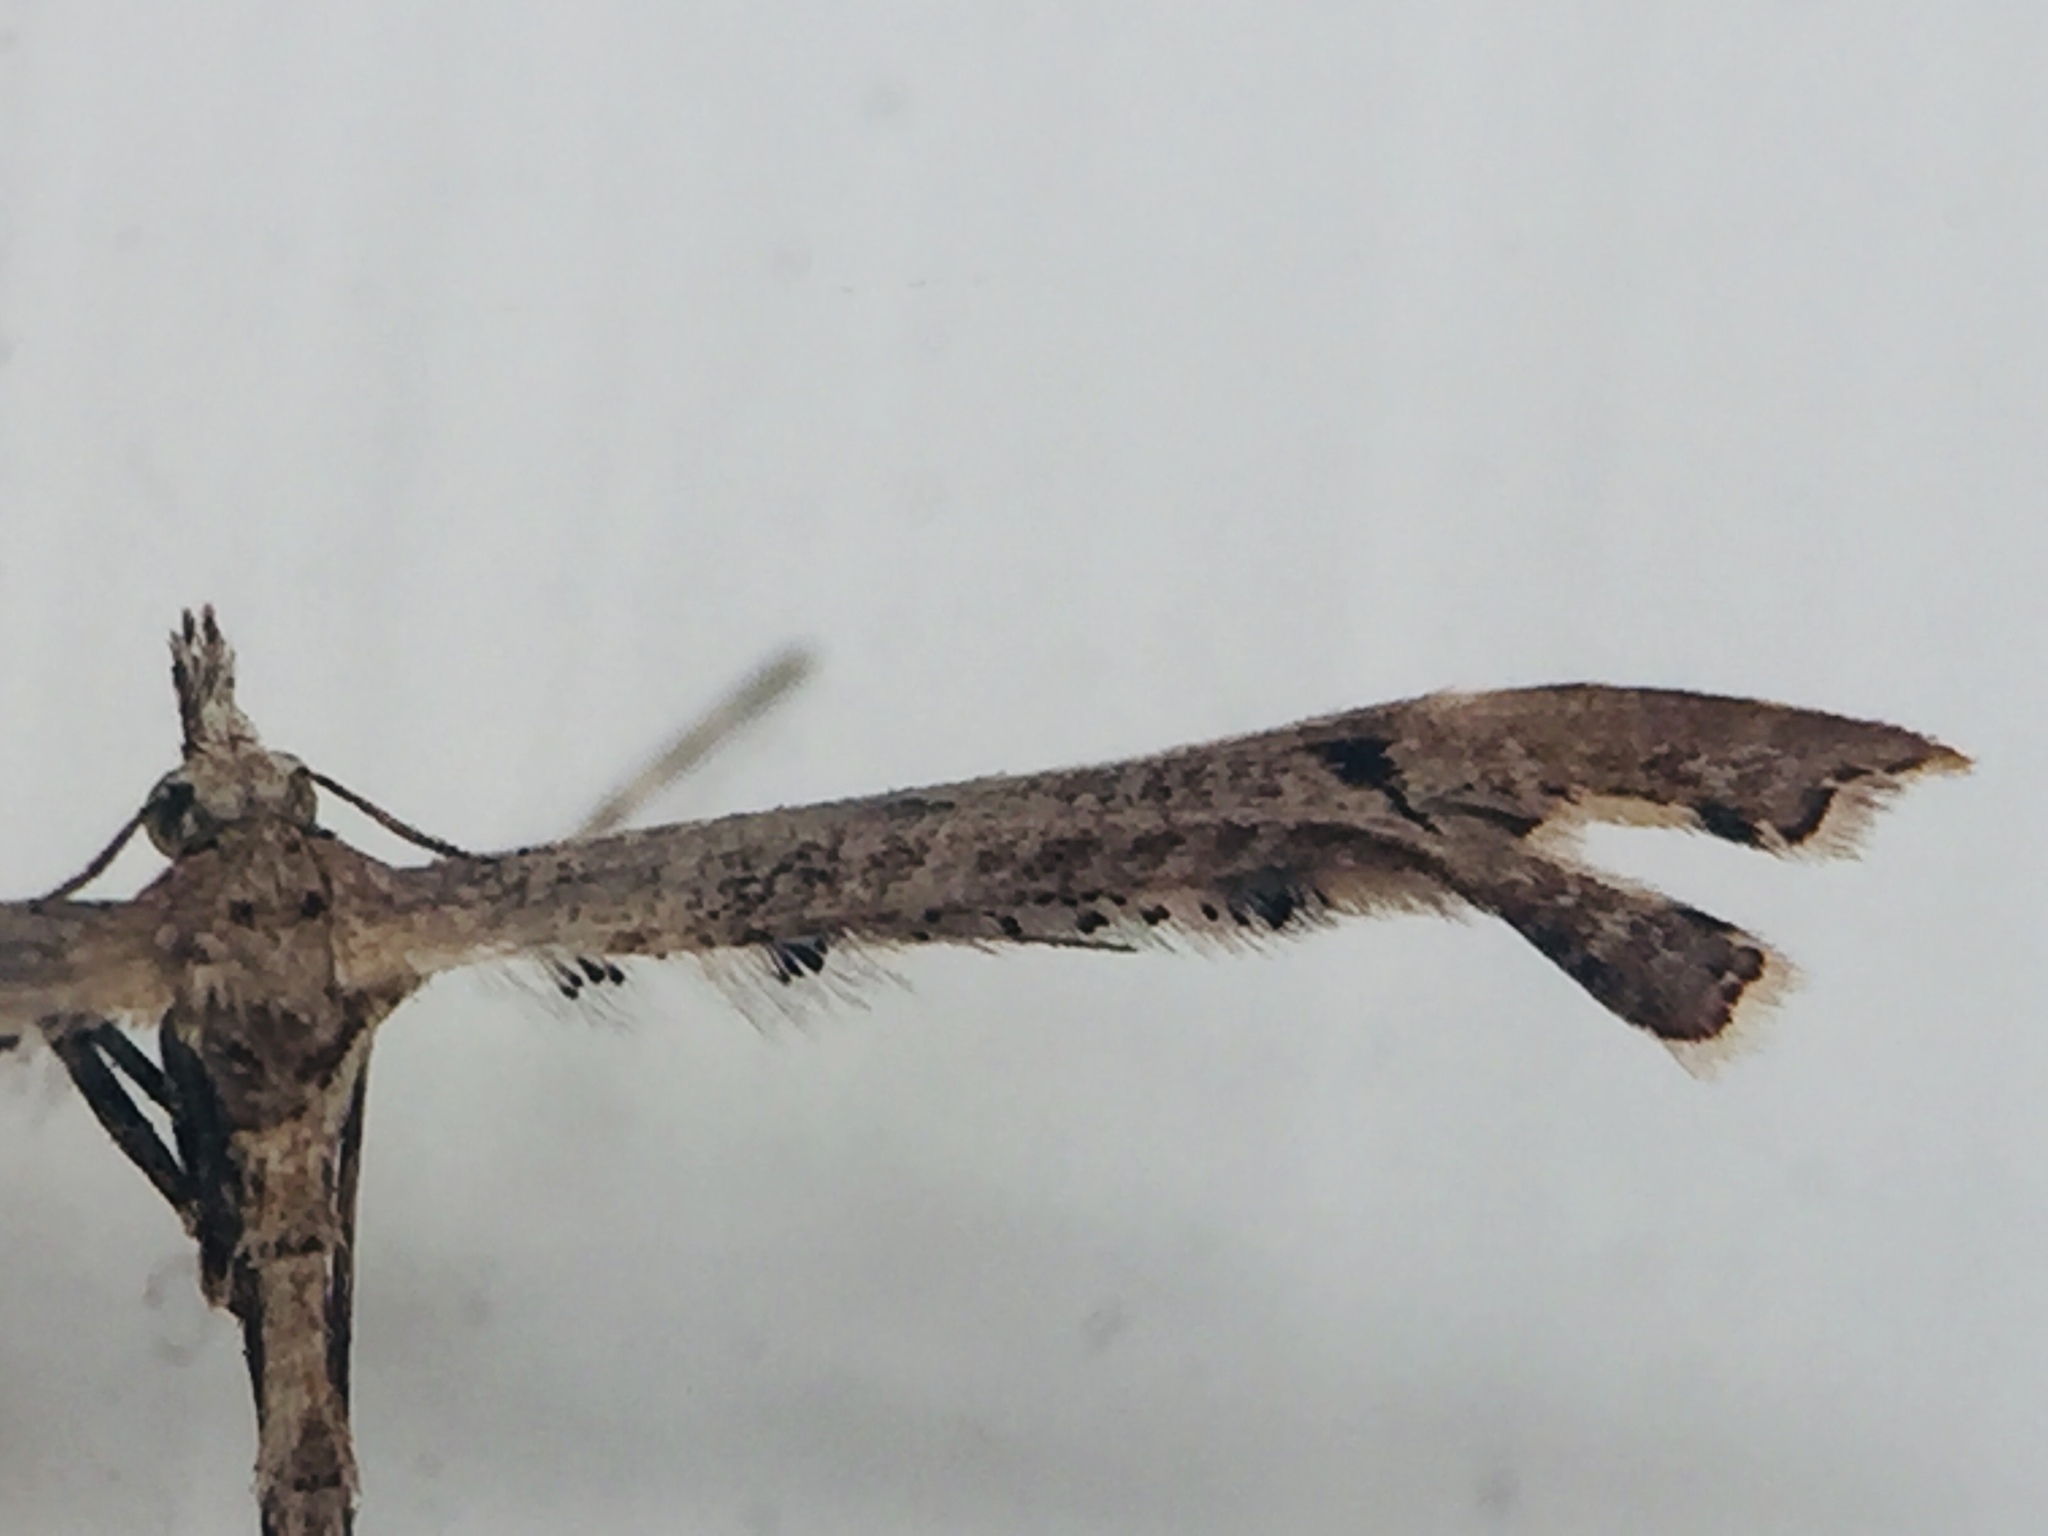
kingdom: Animalia
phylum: Arthropoda
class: Insecta
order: Lepidoptera
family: Pterophoridae
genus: Amblyptilia
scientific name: Amblyptilia repletalis
